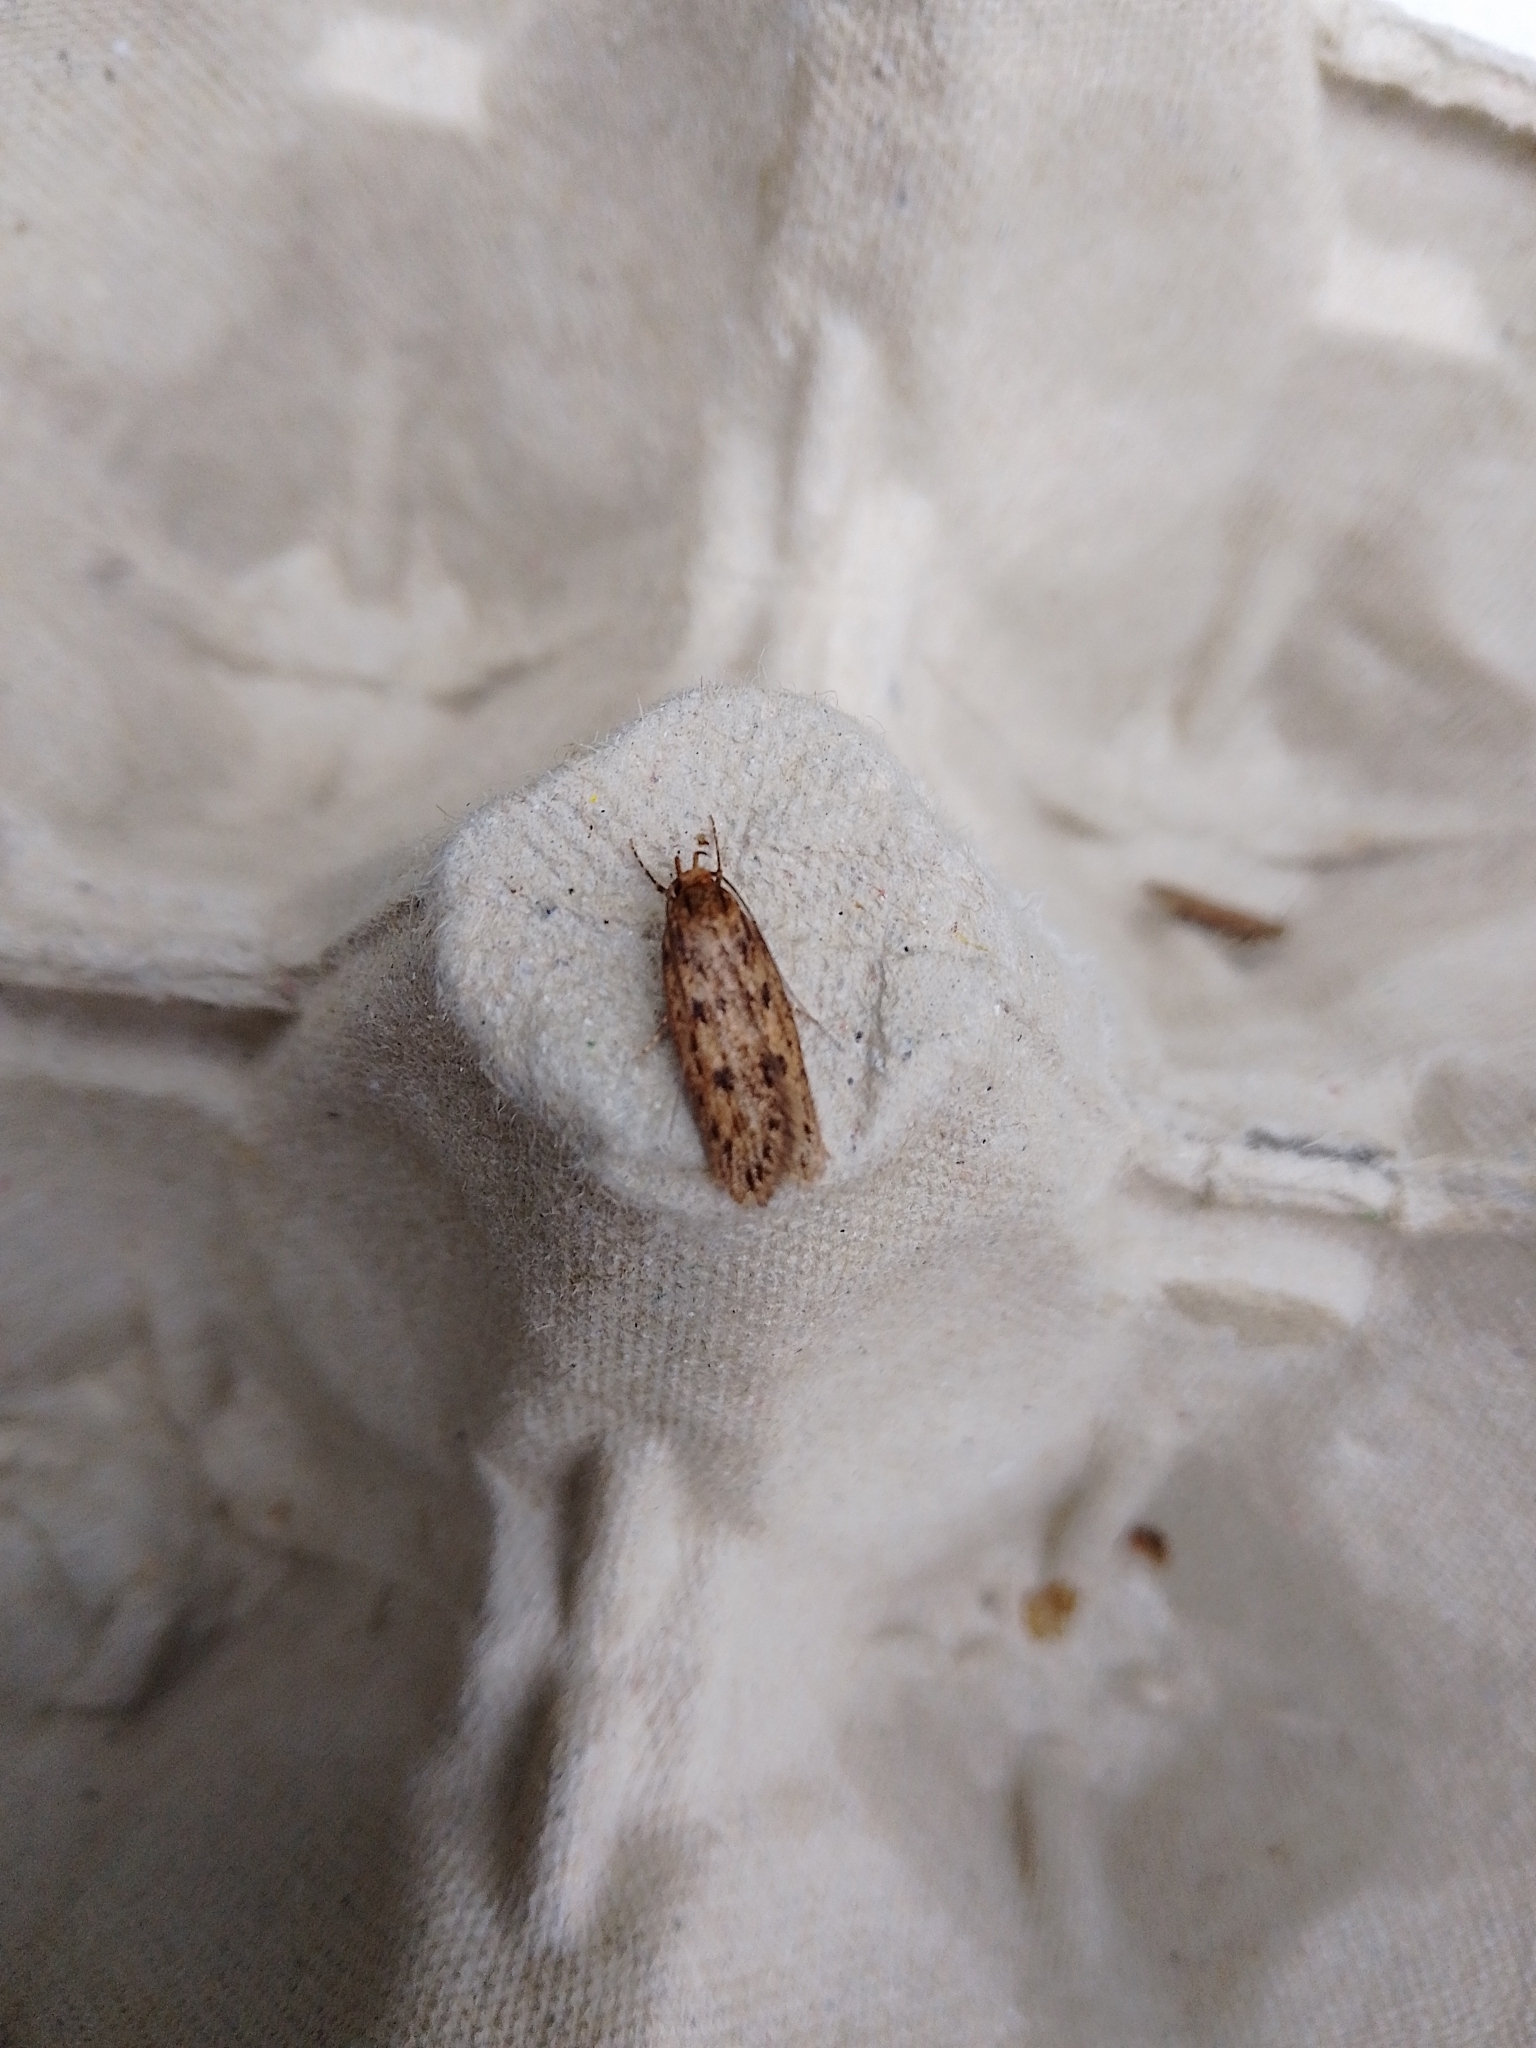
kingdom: Animalia
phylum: Arthropoda
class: Insecta
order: Lepidoptera
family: Oecophoridae
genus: Hofmannophila
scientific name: Hofmannophila pseudospretella
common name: Brown house moth
